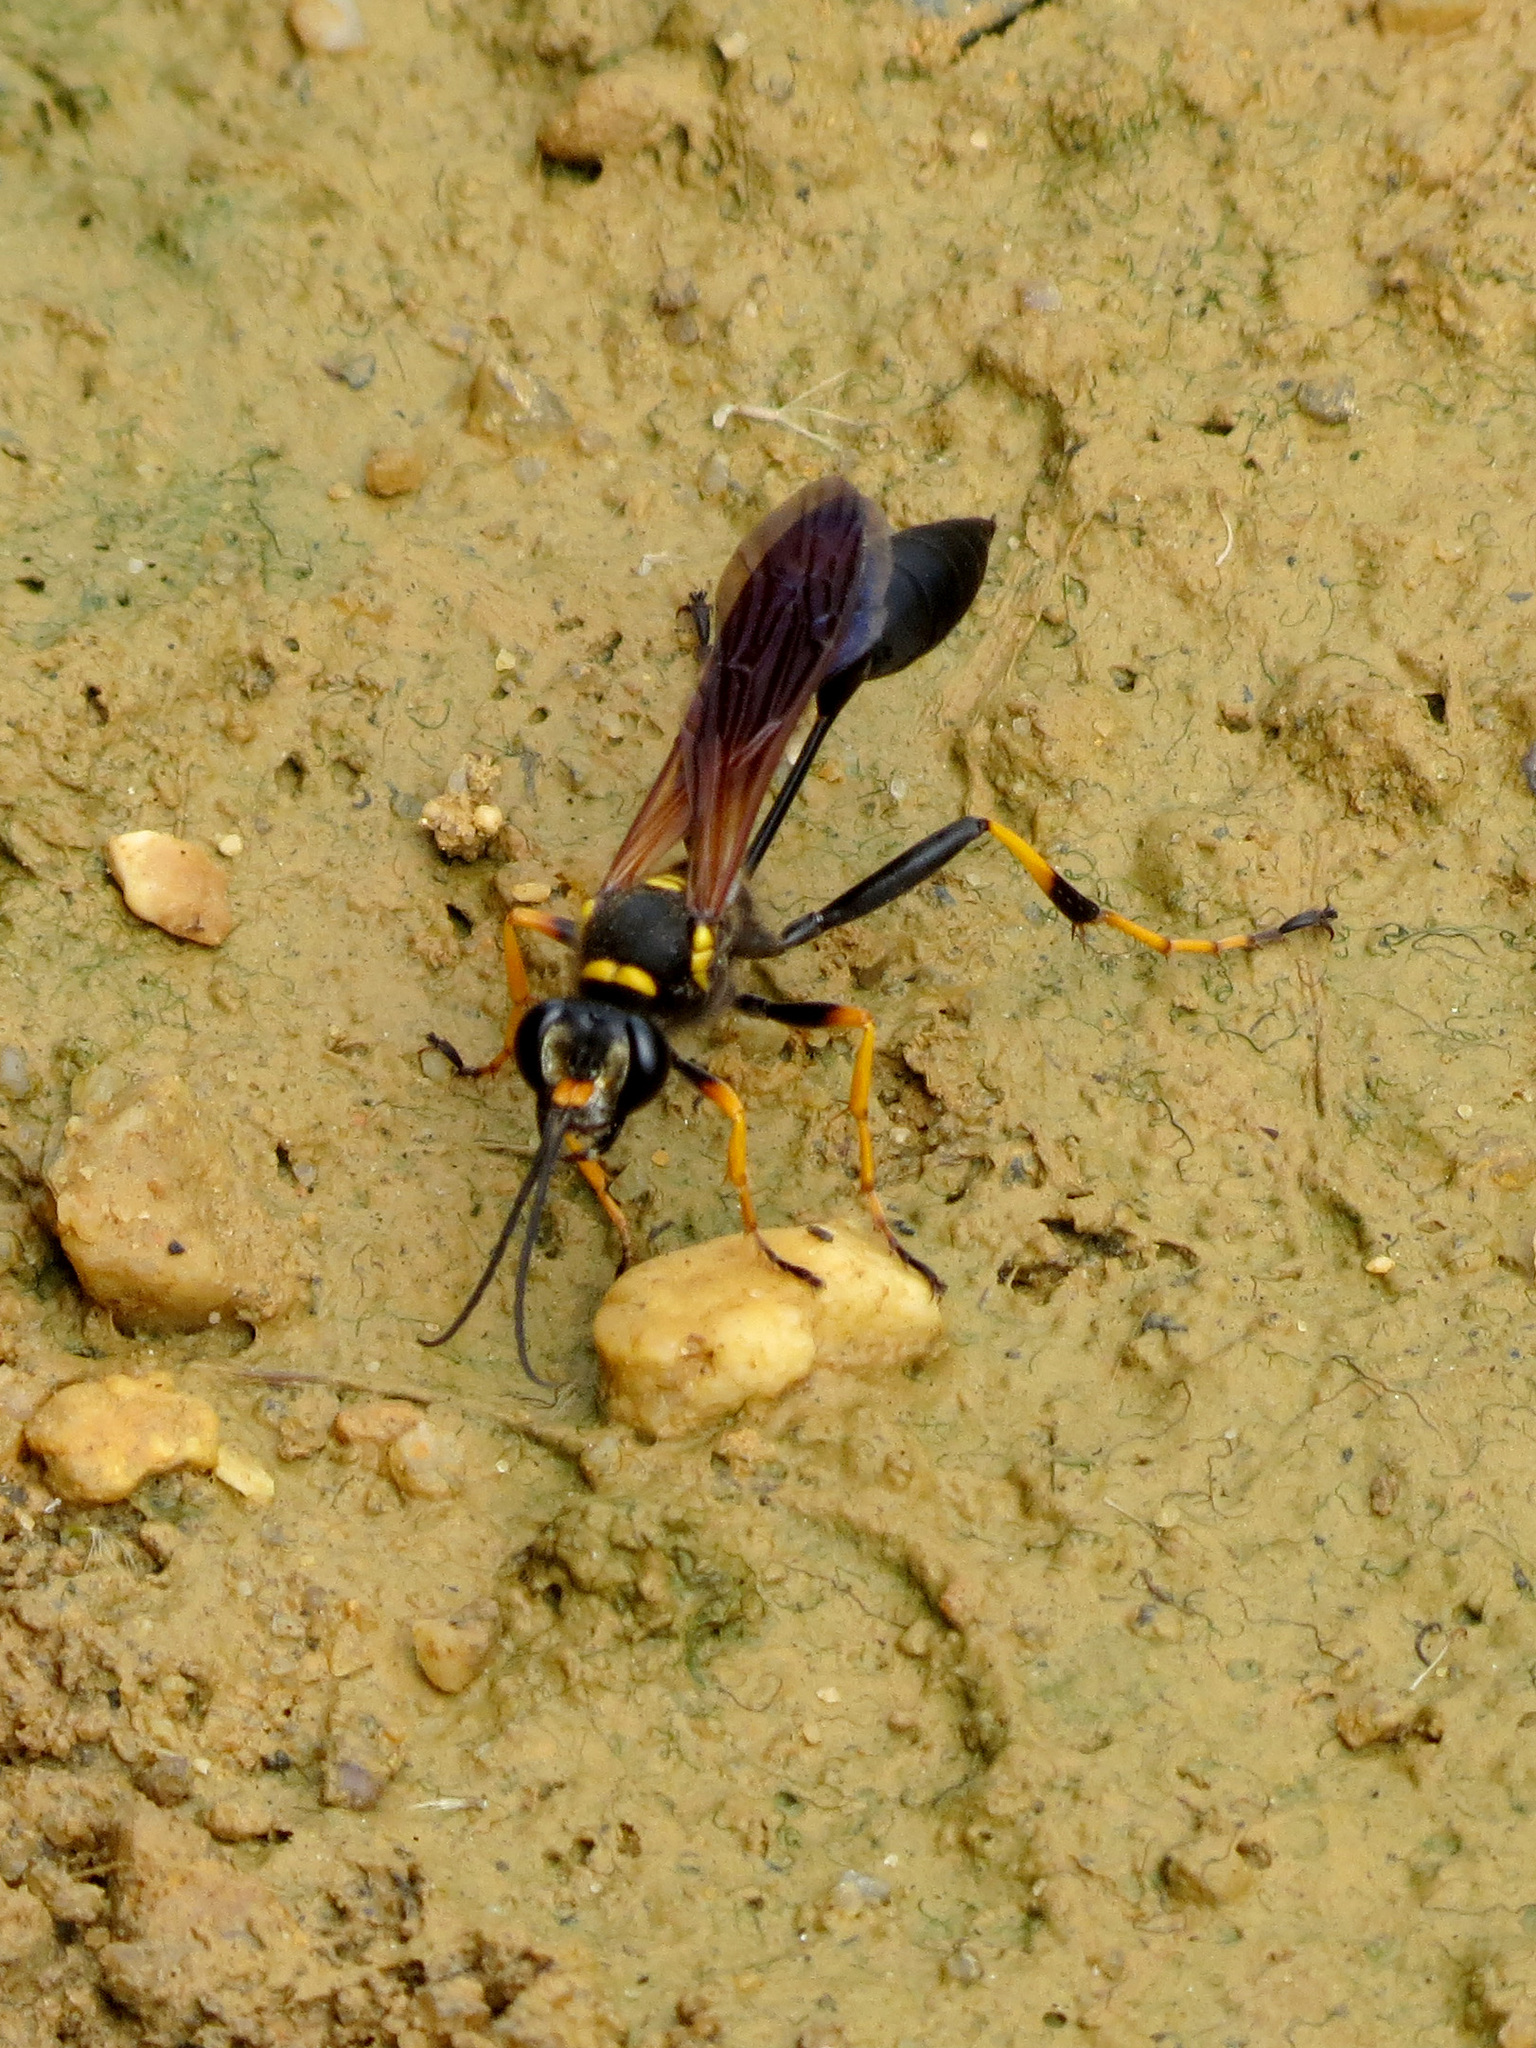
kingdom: Animalia
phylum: Arthropoda
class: Insecta
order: Hymenoptera
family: Sphecidae
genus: Sceliphron
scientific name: Sceliphron caementarium
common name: Mud dauber
